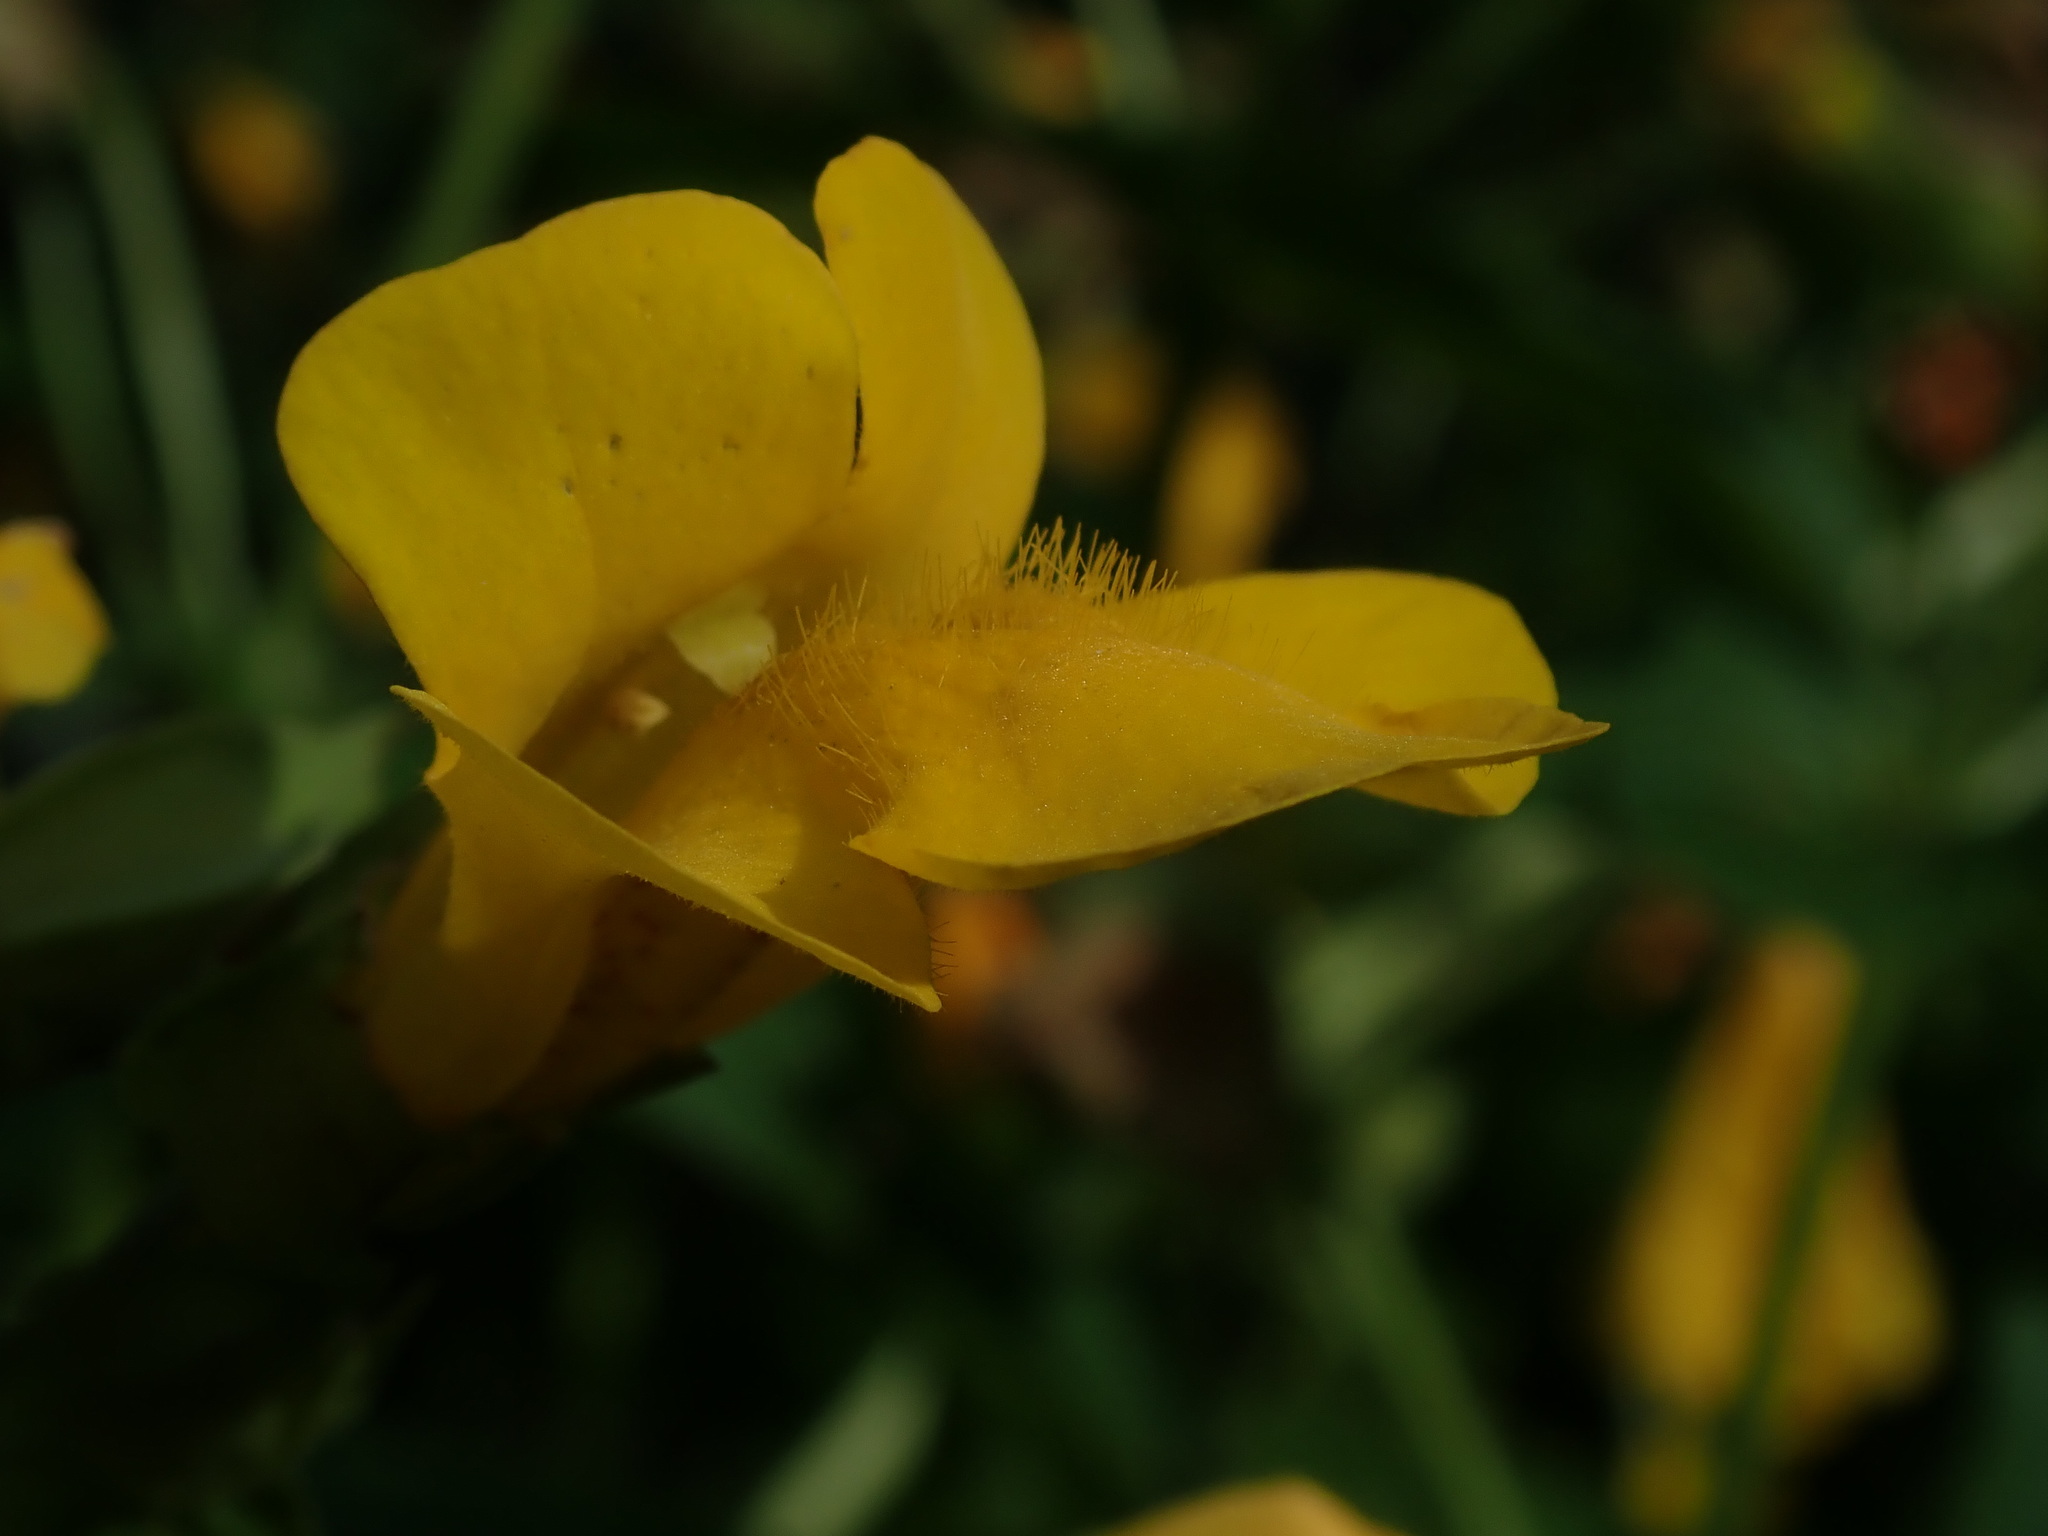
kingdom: Plantae
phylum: Tracheophyta
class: Magnoliopsida
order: Lamiales
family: Phrymaceae
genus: Erythranthe
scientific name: Erythranthe decora
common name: Mannered monkeyflower
